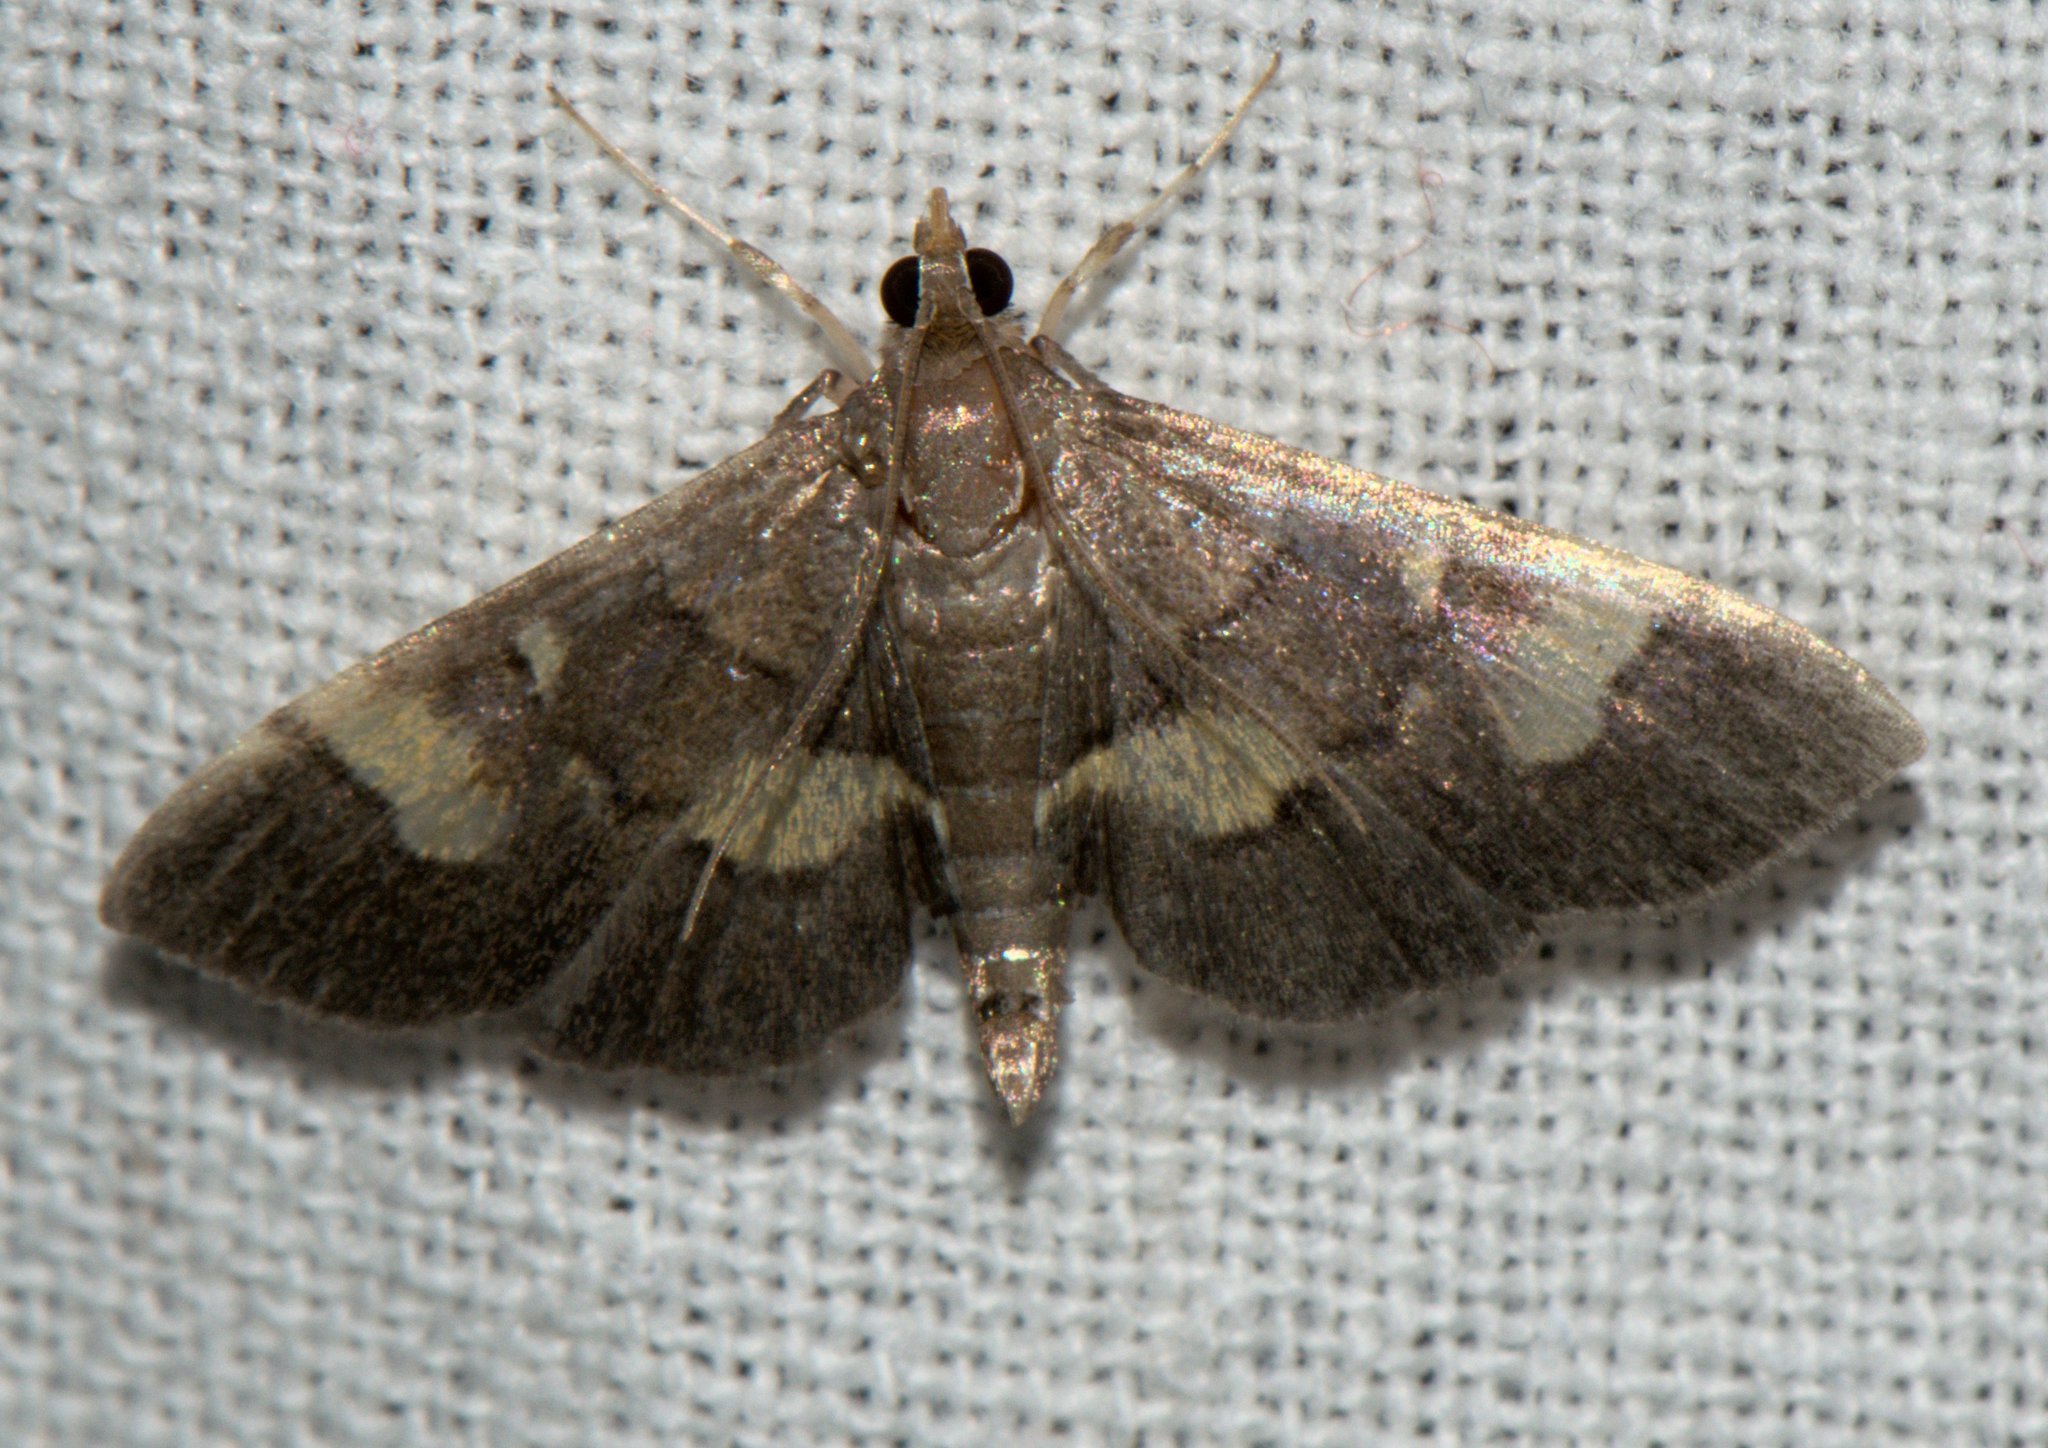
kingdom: Animalia
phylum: Arthropoda
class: Insecta
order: Lepidoptera
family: Crambidae
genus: Syngamia
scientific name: Syngamia falsidicalis
